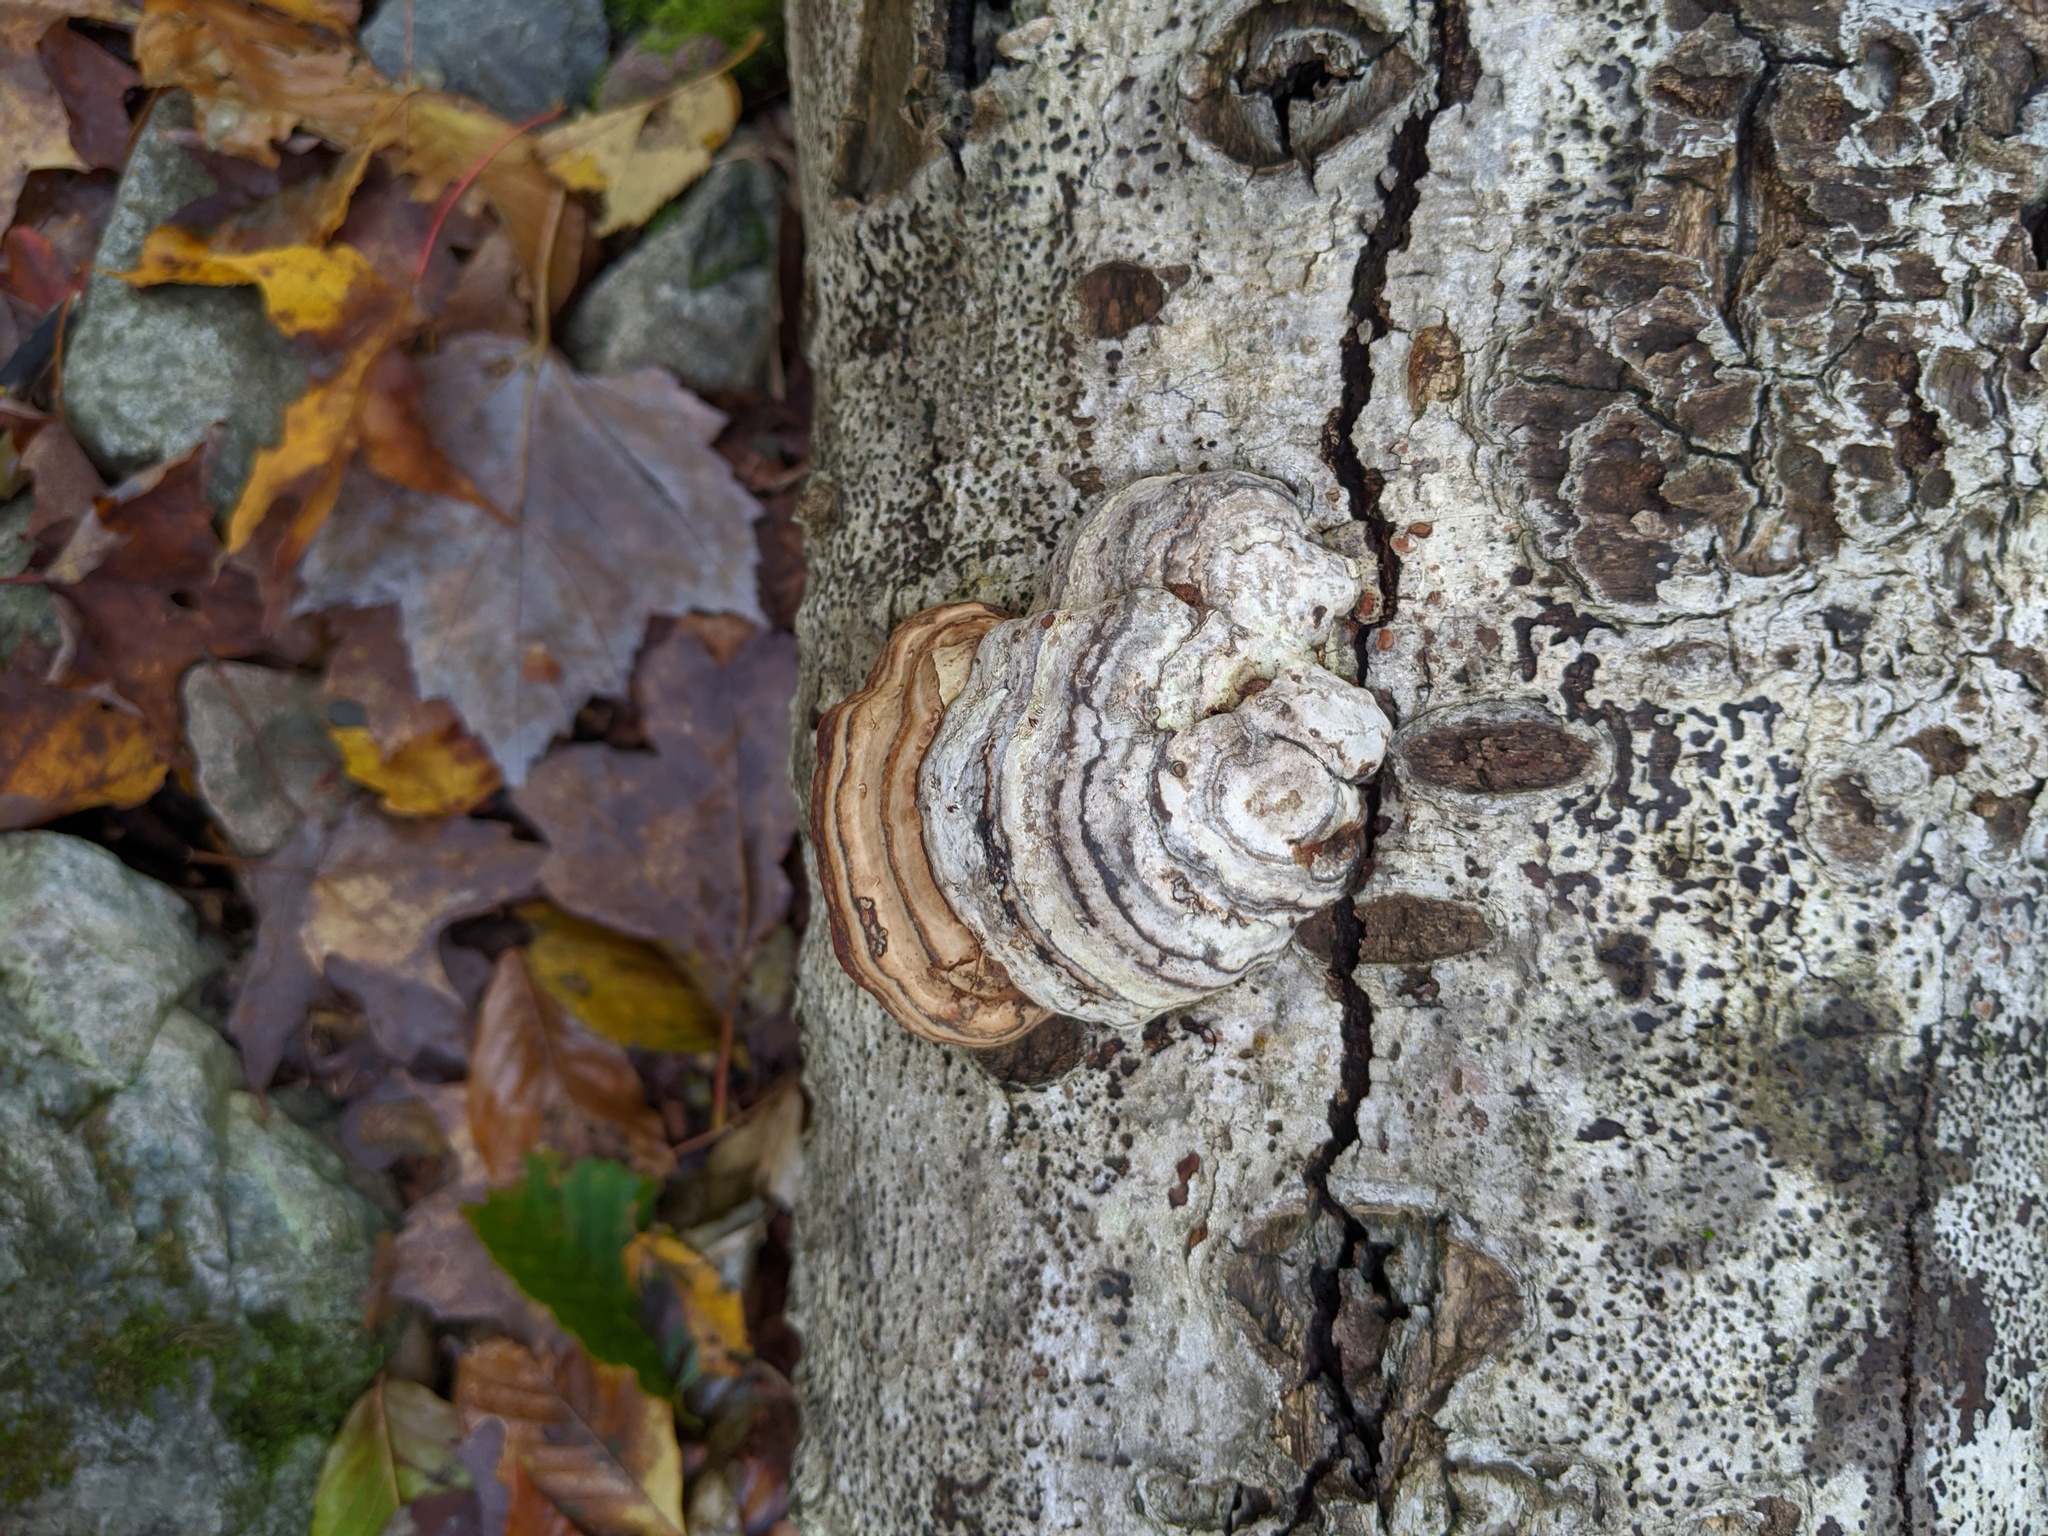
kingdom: Fungi
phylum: Basidiomycota
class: Agaricomycetes
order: Polyporales
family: Polyporaceae
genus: Fomes
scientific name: Fomes fomentarius
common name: Hoof fungus
